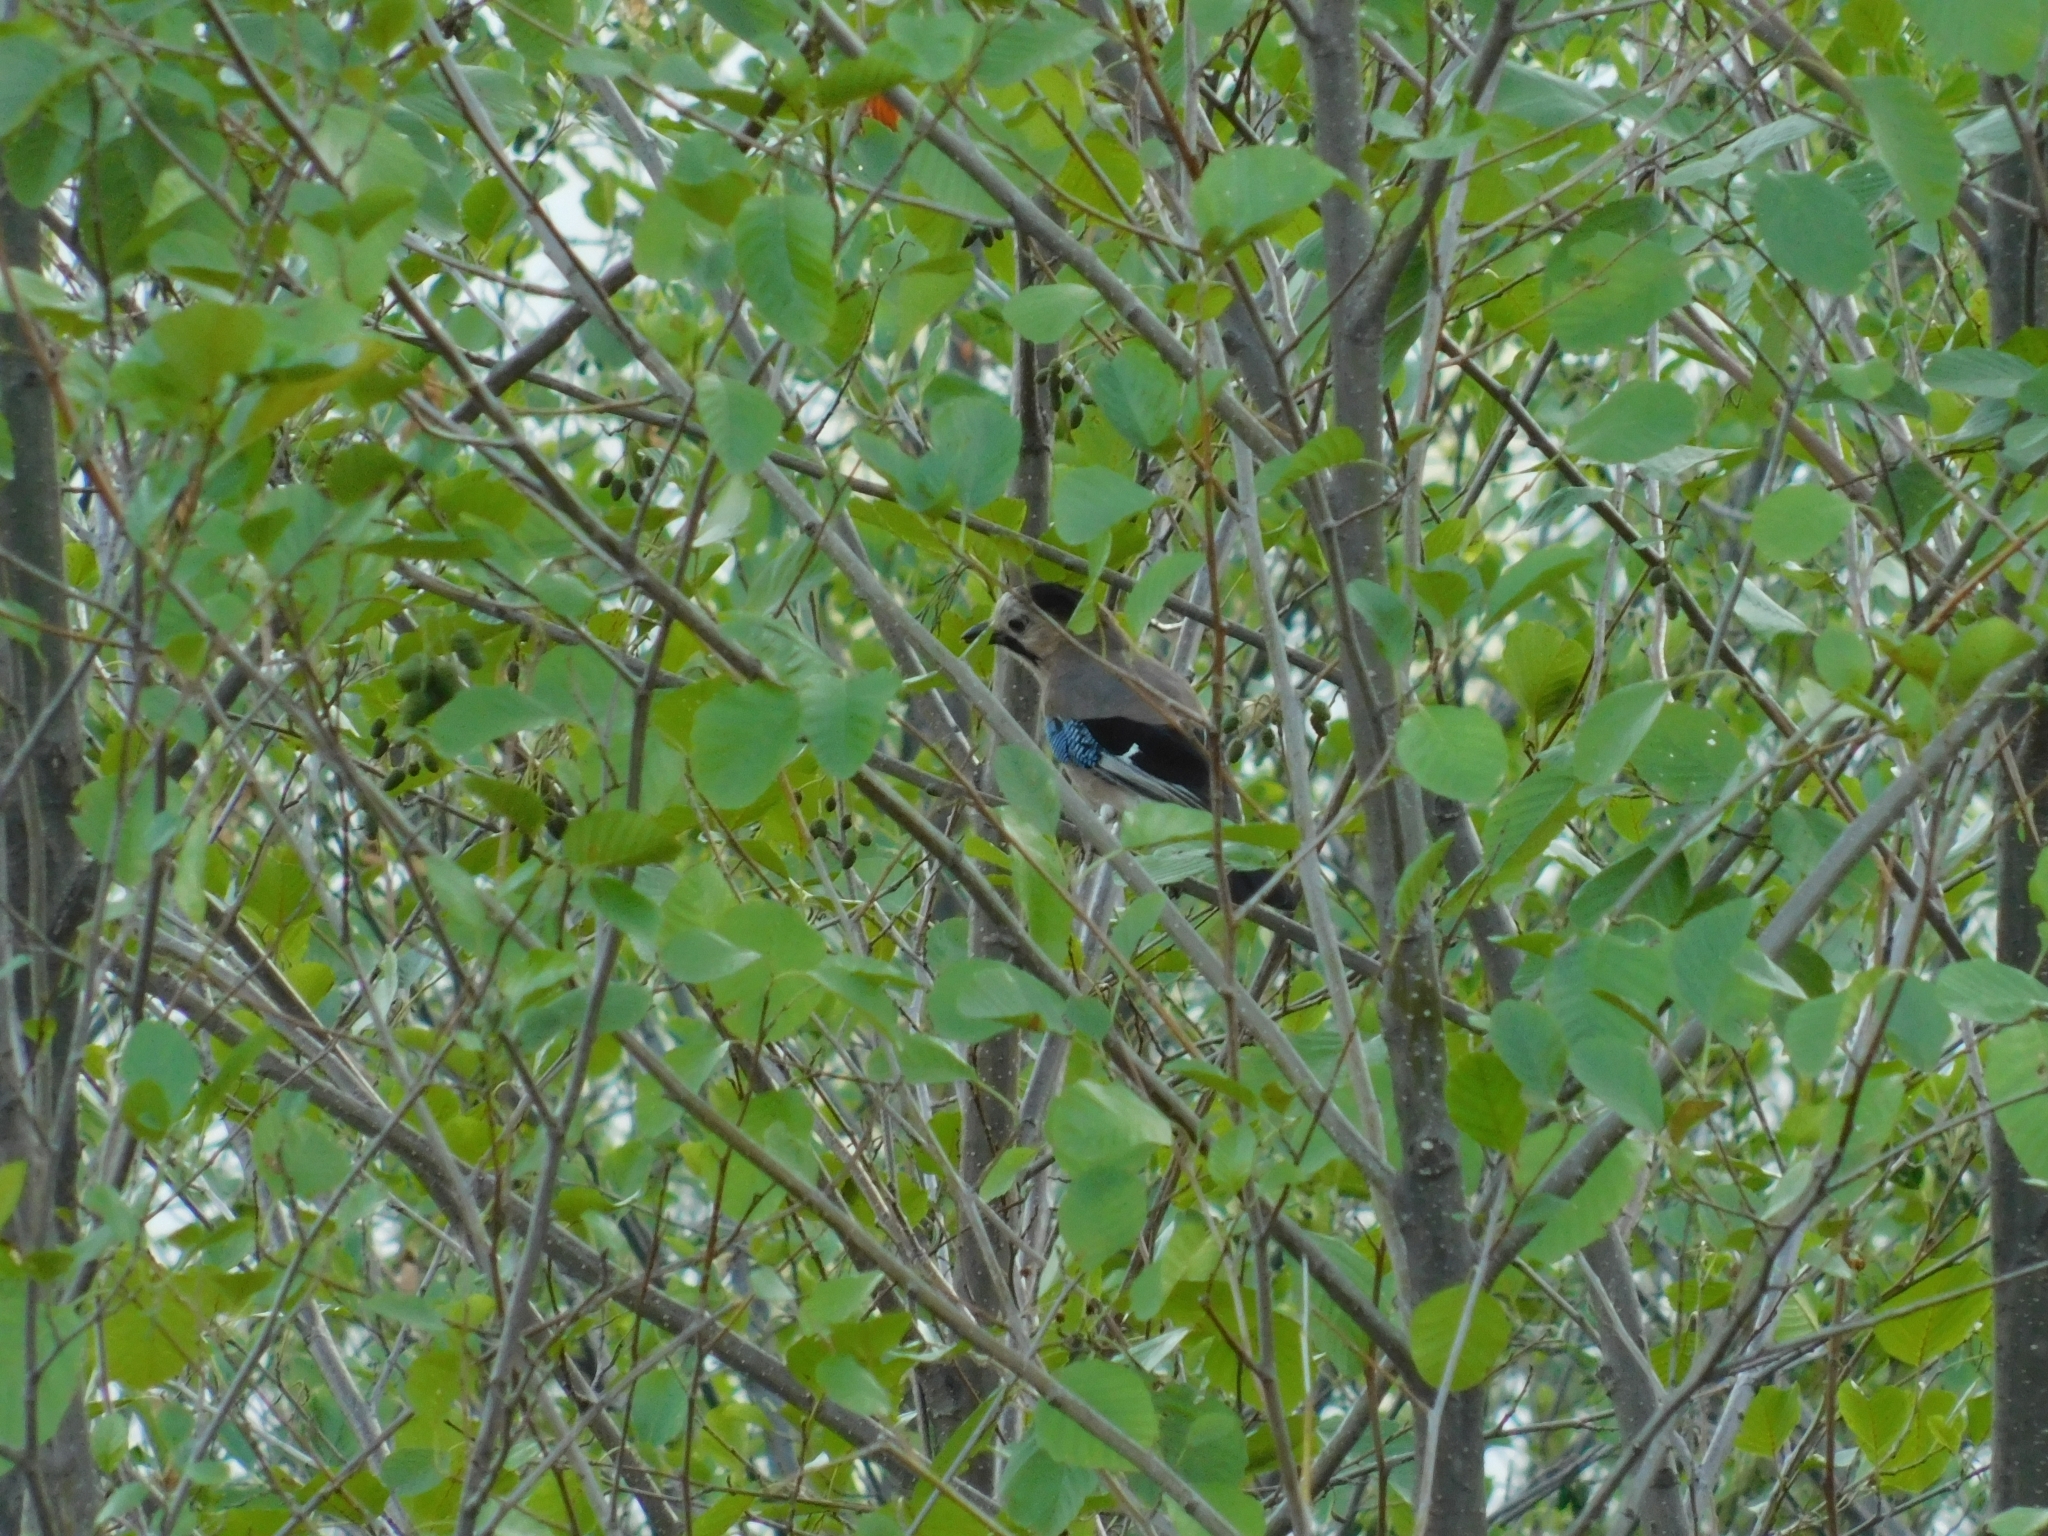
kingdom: Animalia
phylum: Chordata
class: Aves
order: Passeriformes
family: Corvidae
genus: Garrulus
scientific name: Garrulus glandarius
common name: Eurasian jay
